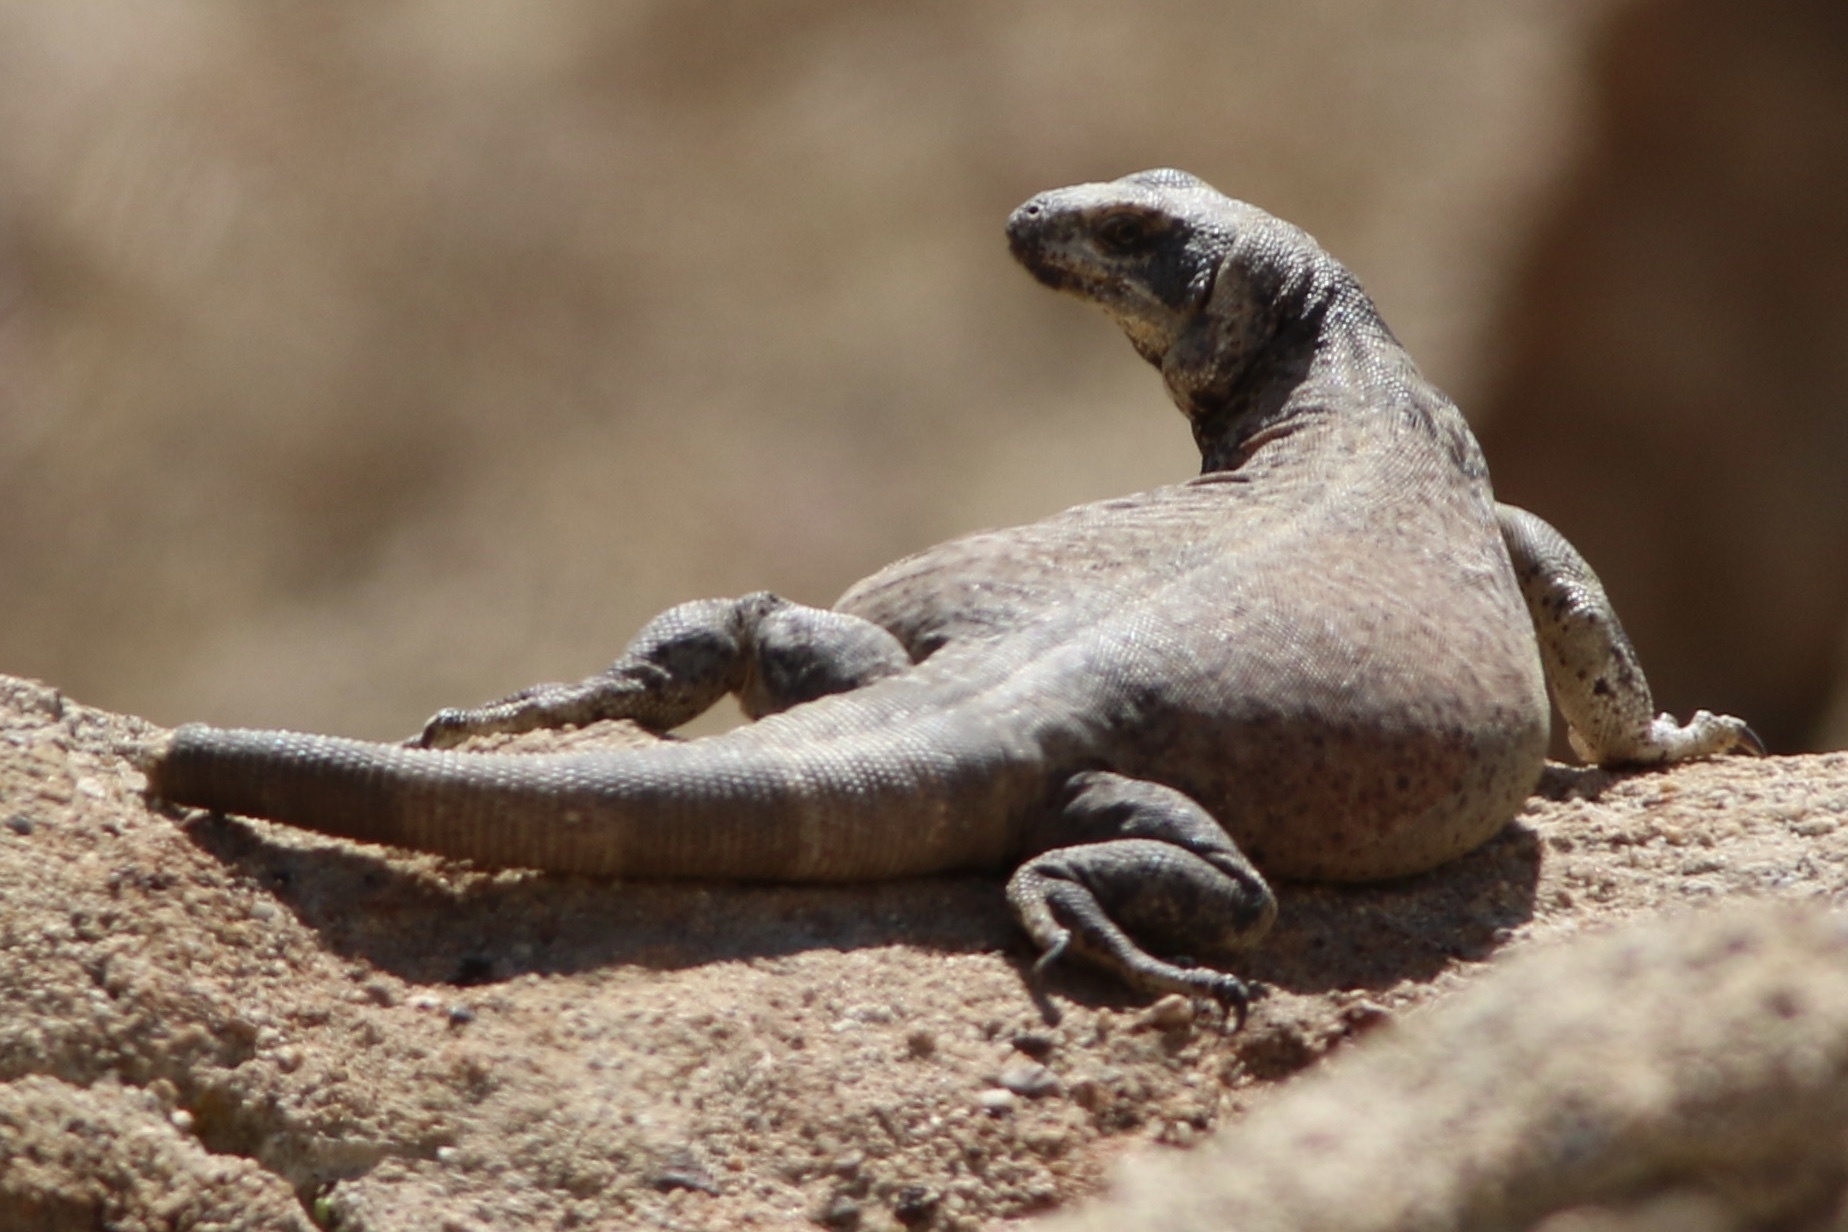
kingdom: Animalia
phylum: Chordata
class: Squamata
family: Iguanidae
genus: Sauromalus
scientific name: Sauromalus ater
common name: Northern chuckwalla
